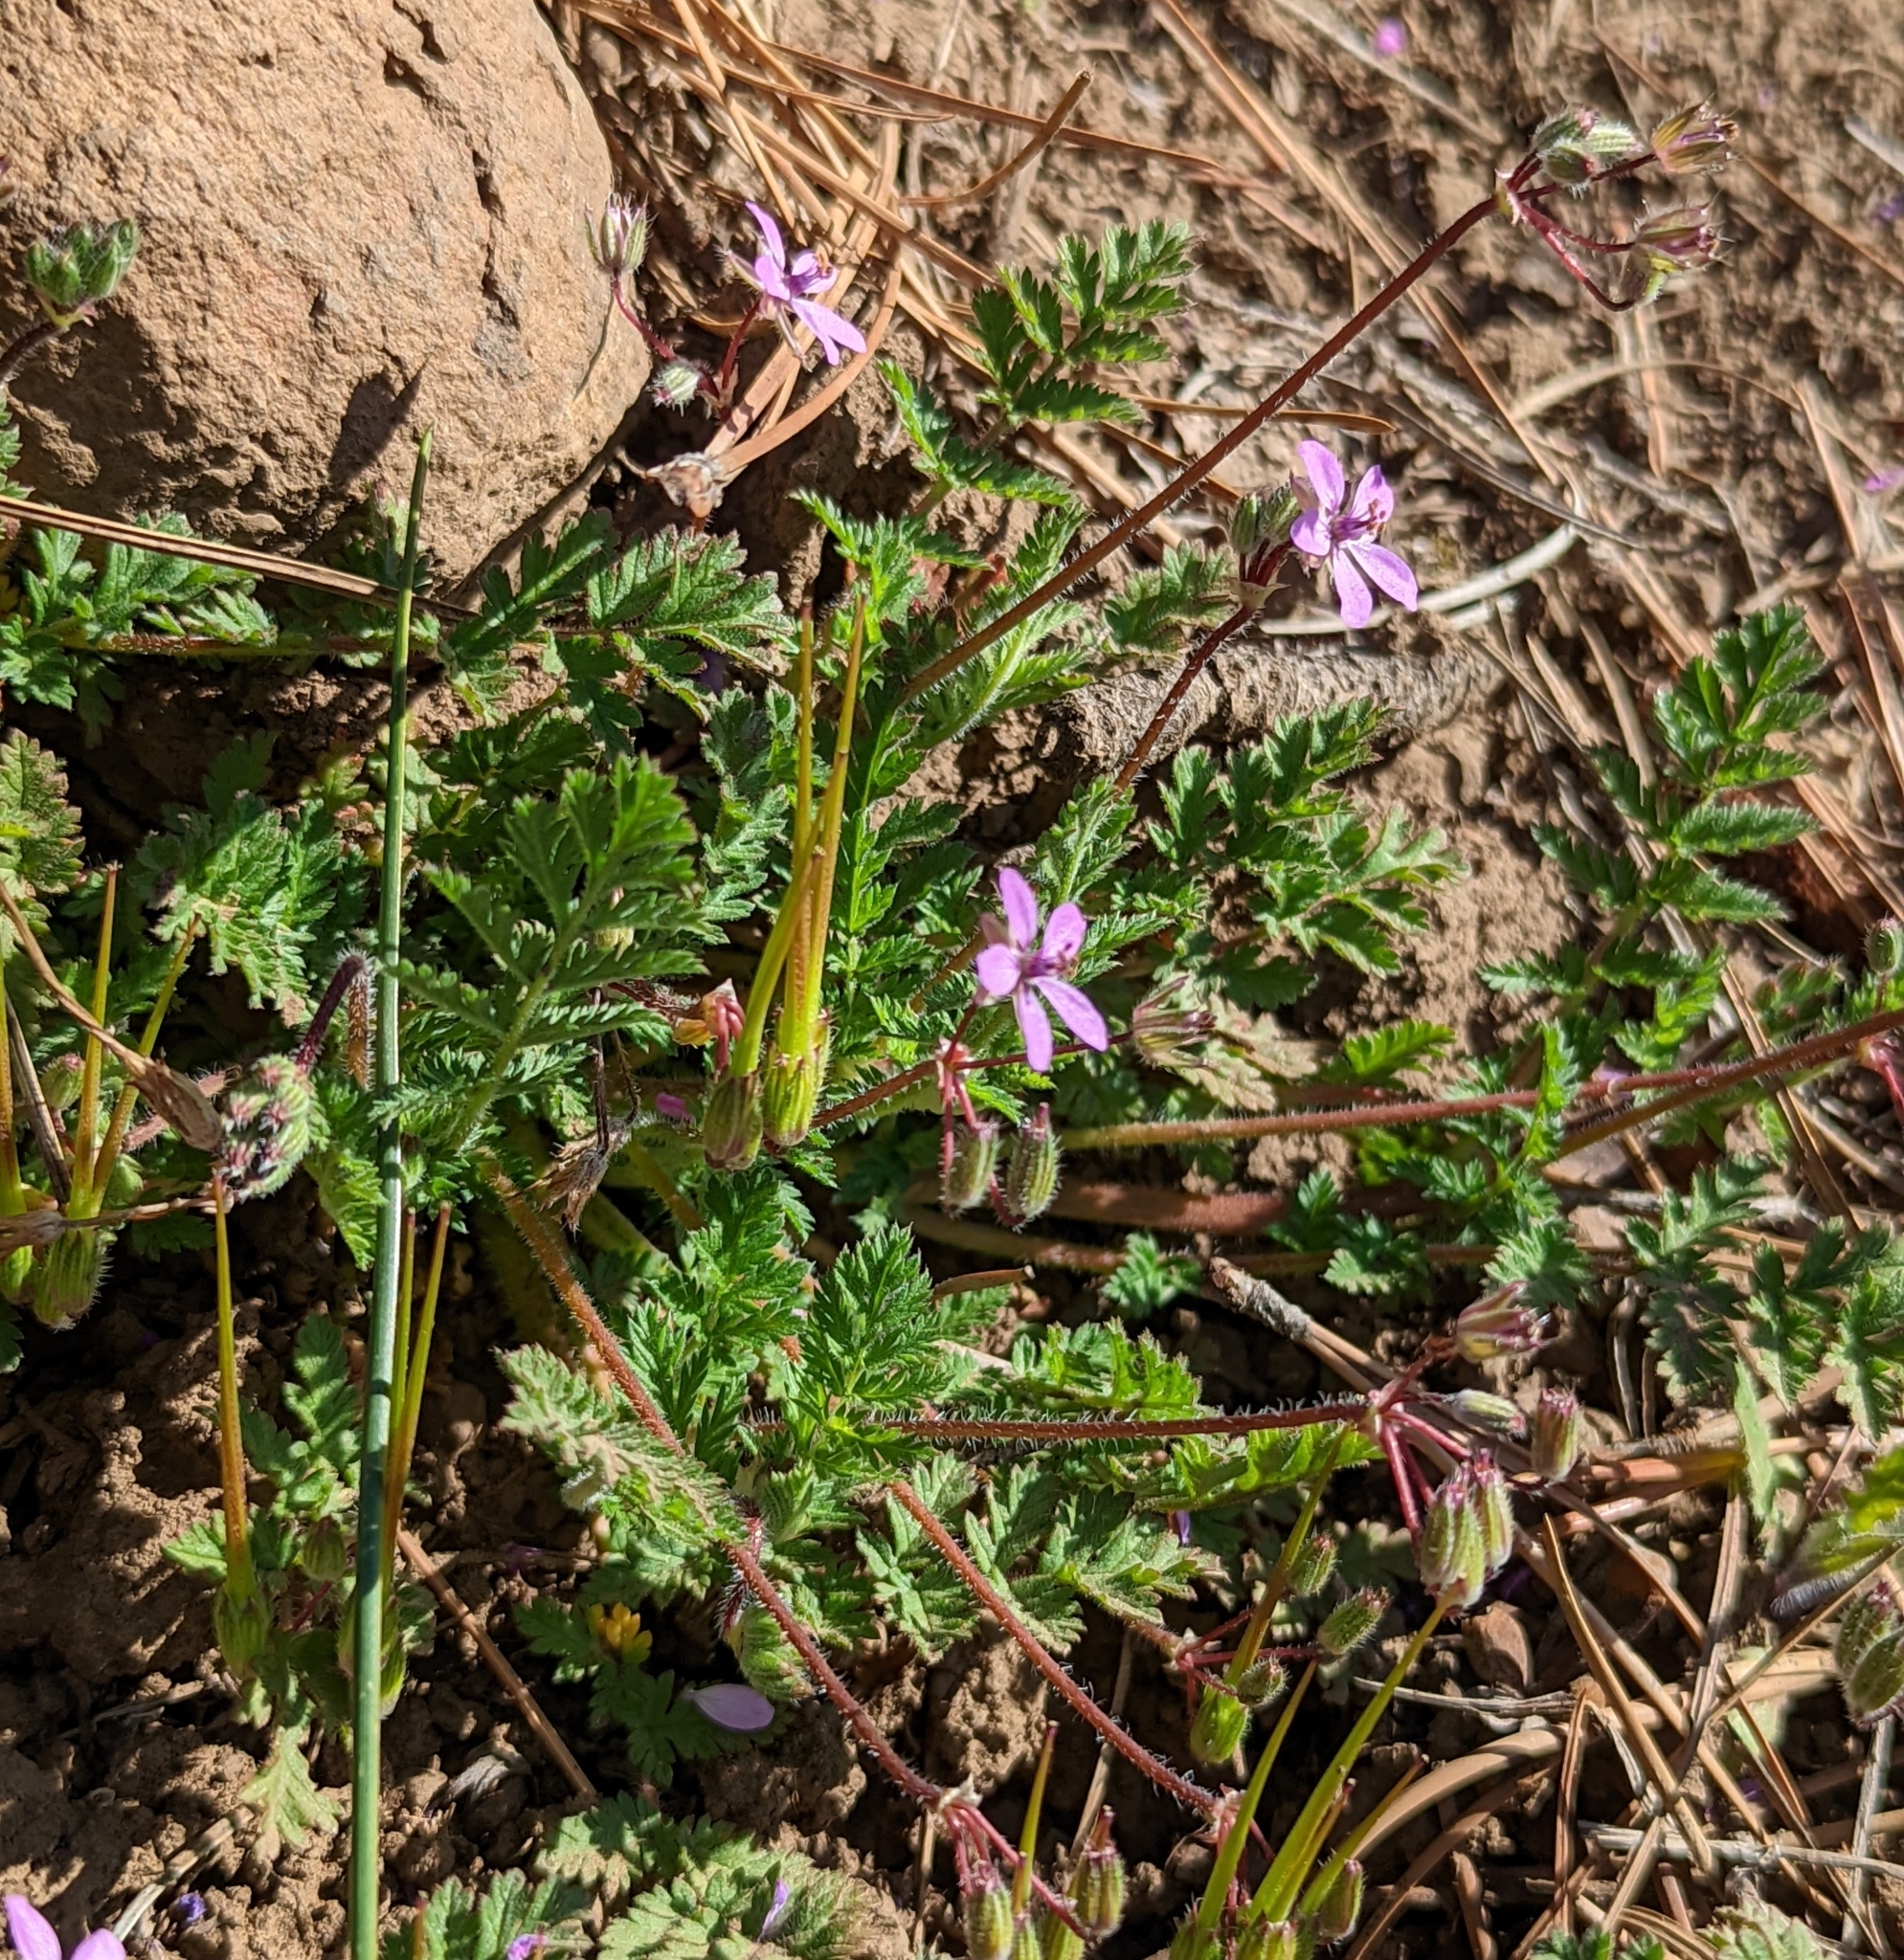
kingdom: Plantae
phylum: Tracheophyta
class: Magnoliopsida
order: Geraniales
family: Geraniaceae
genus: Erodium
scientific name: Erodium cicutarium
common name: Common stork's-bill
